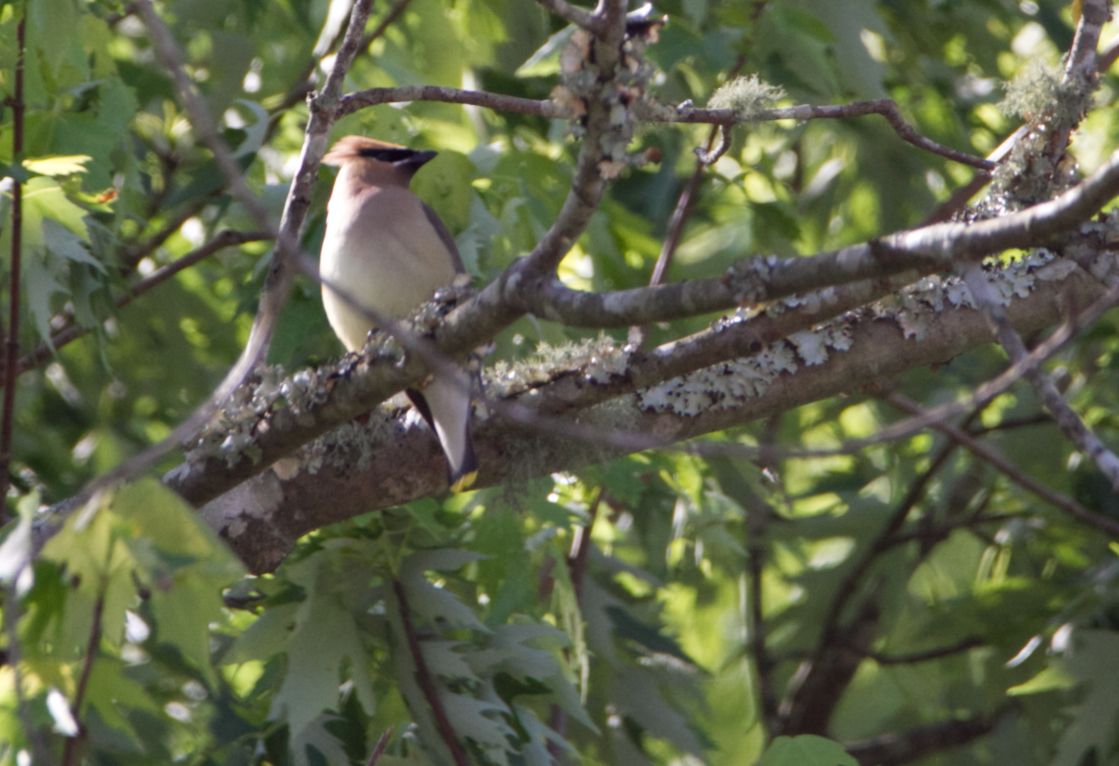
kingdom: Animalia
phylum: Chordata
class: Aves
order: Passeriformes
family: Bombycillidae
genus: Bombycilla
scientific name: Bombycilla cedrorum
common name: Cedar waxwing
